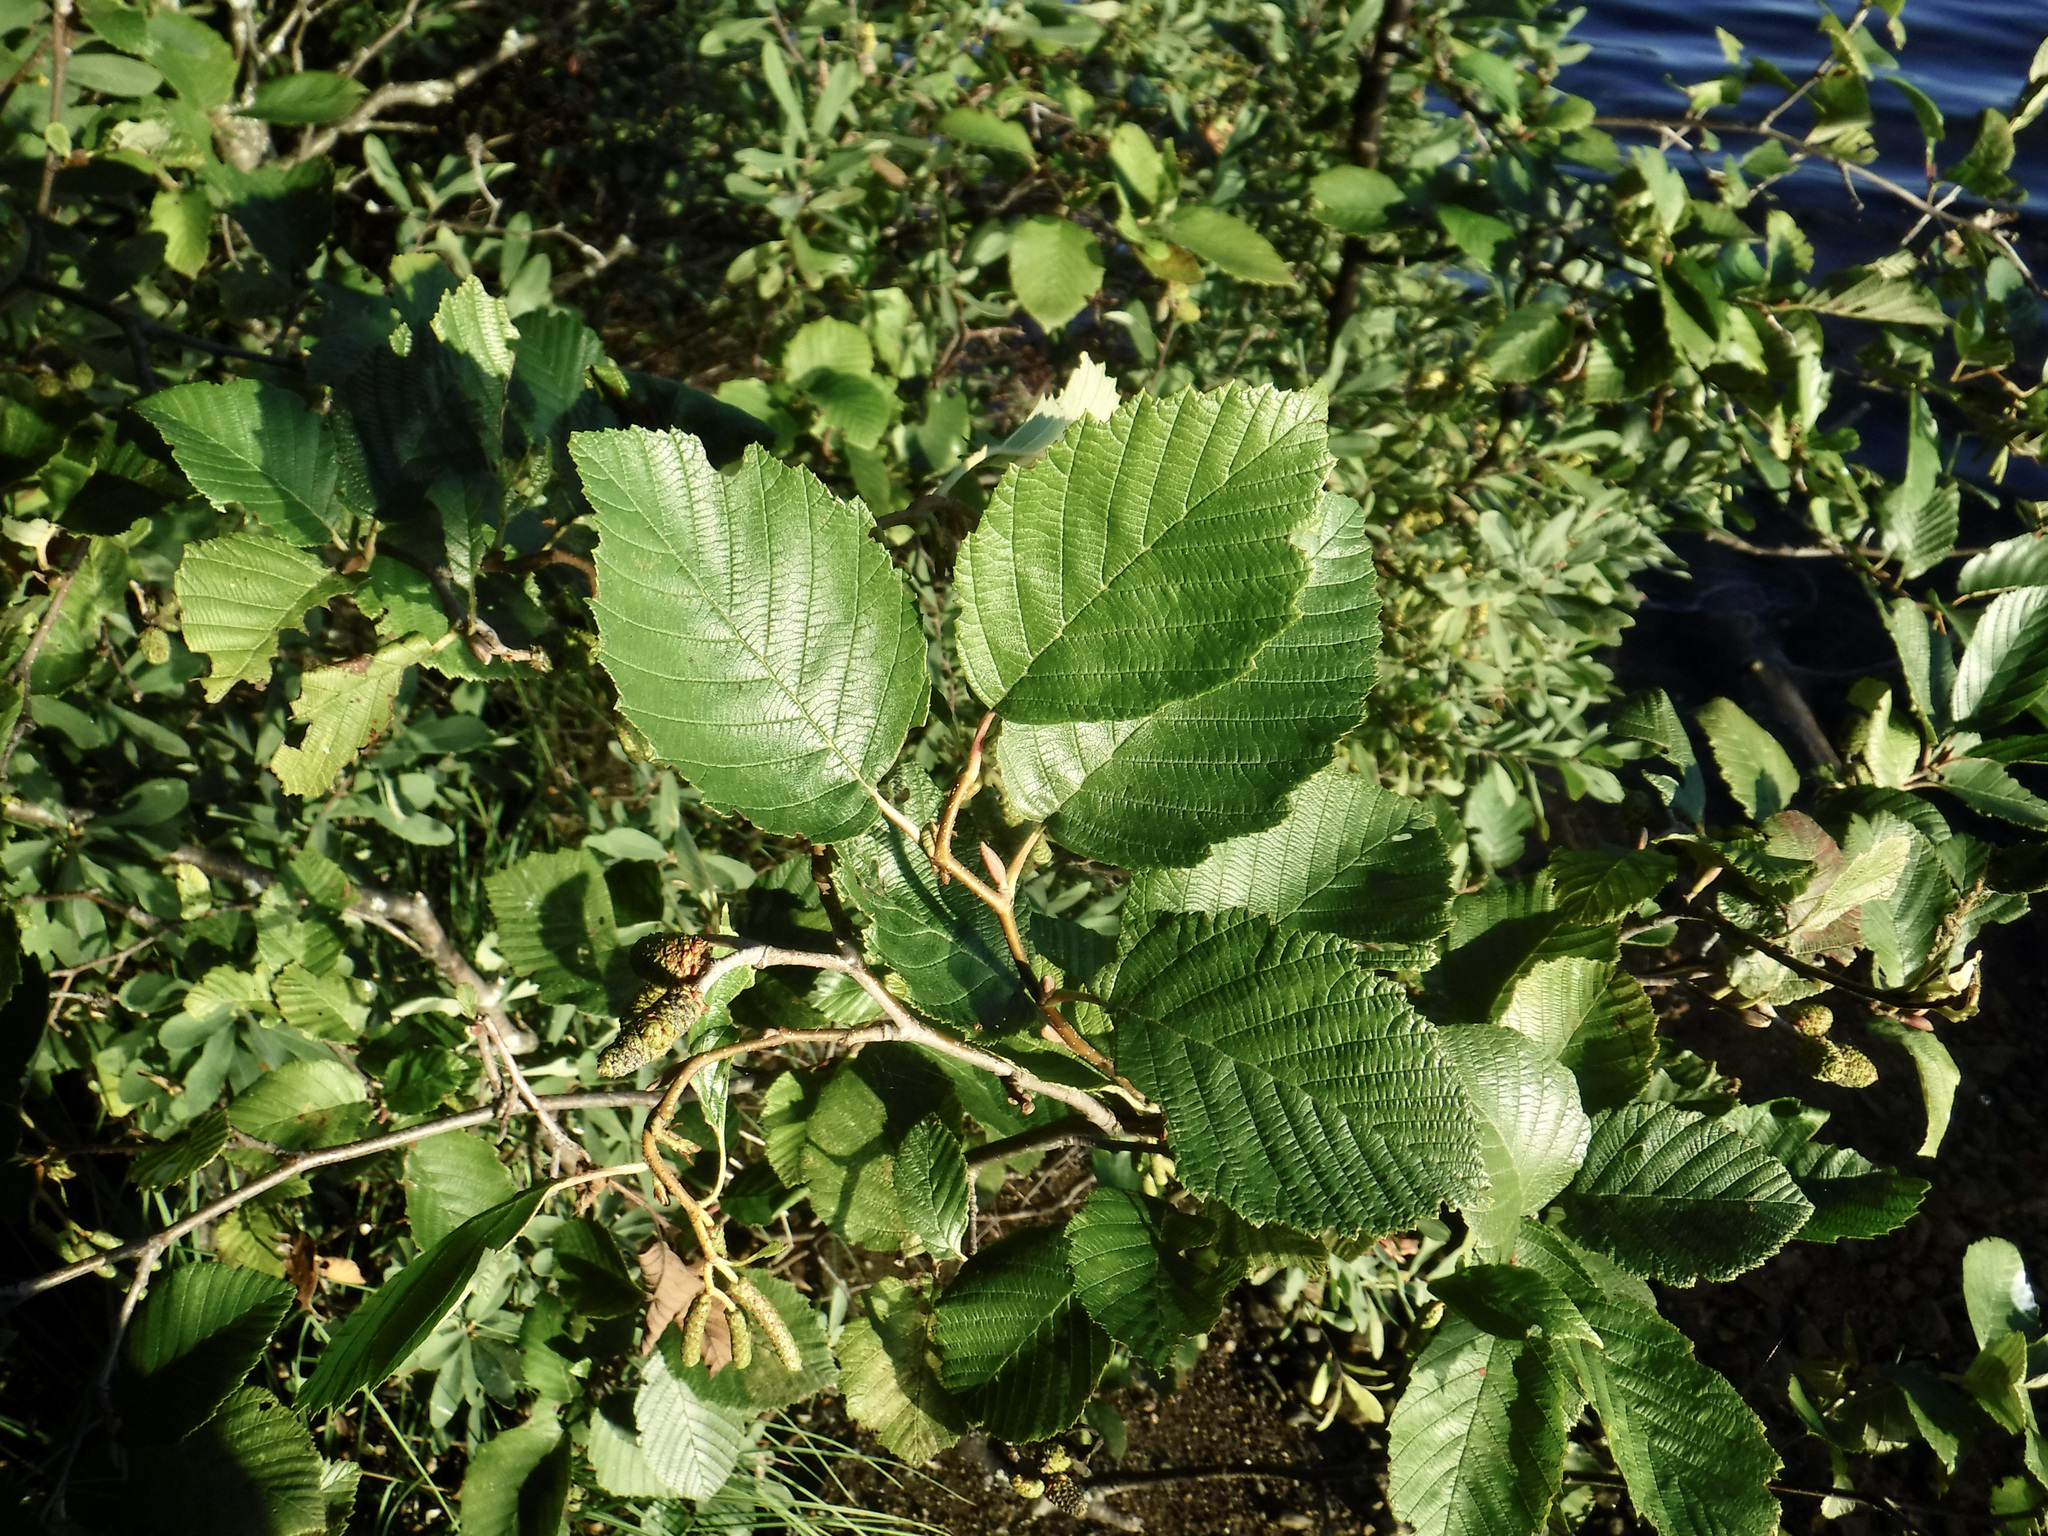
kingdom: Plantae
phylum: Tracheophyta
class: Magnoliopsida
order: Fagales
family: Betulaceae
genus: Alnus
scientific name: Alnus incana
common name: Grey alder
